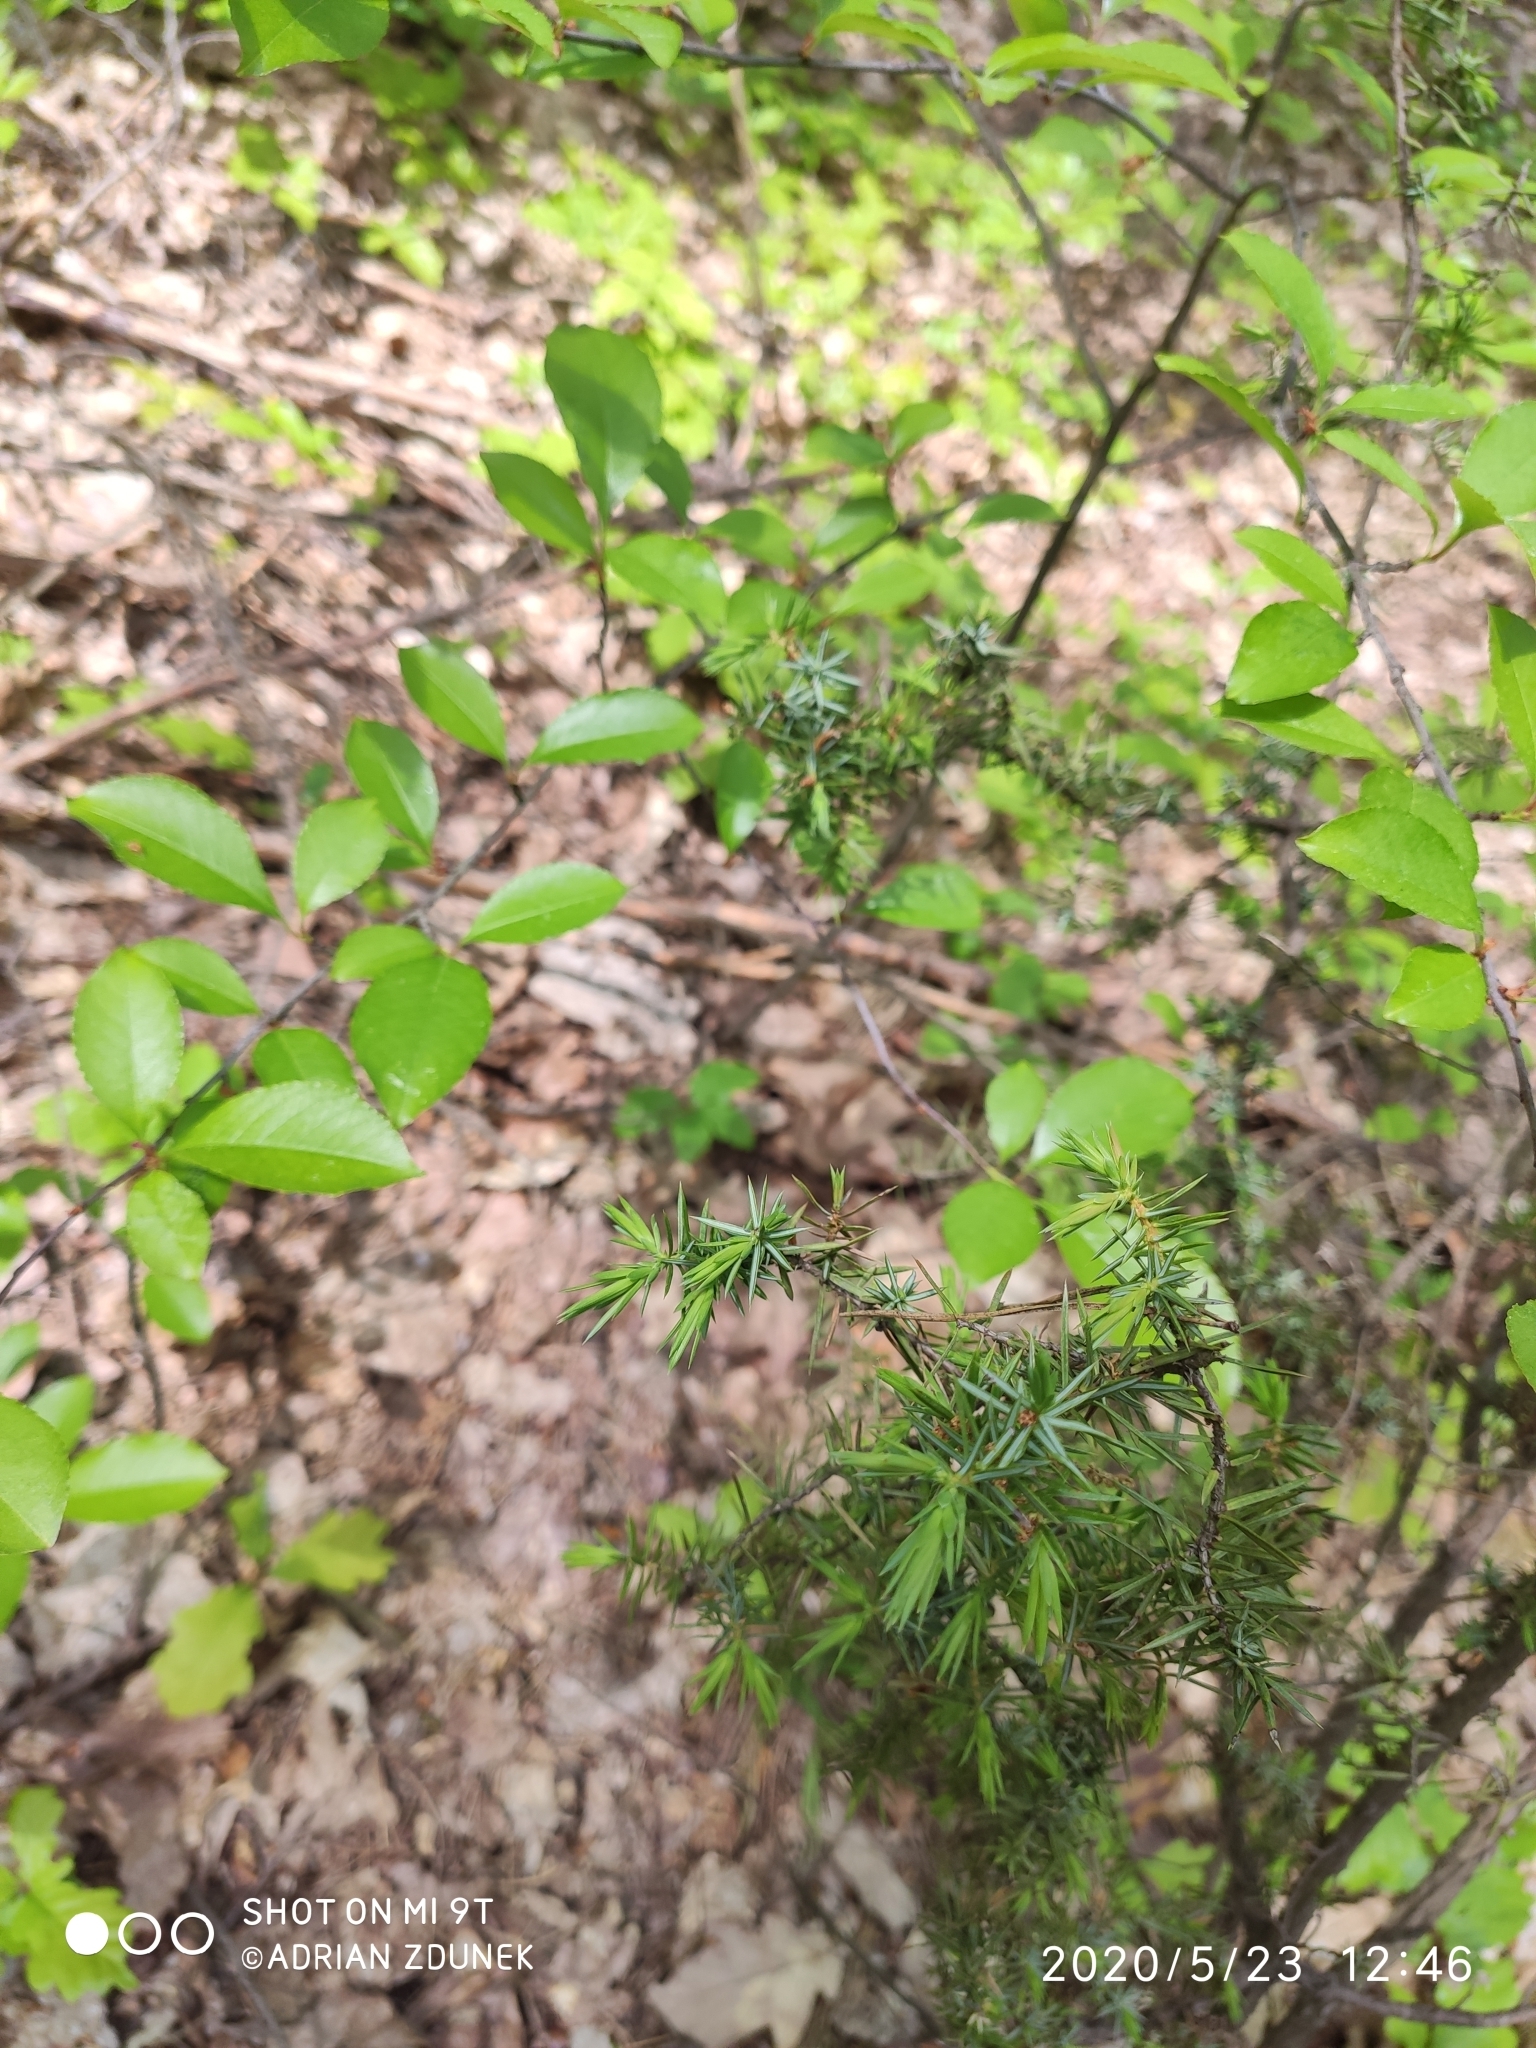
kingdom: Plantae
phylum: Tracheophyta
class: Pinopsida
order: Pinales
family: Cupressaceae
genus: Juniperus
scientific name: Juniperus communis
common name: Common juniper
